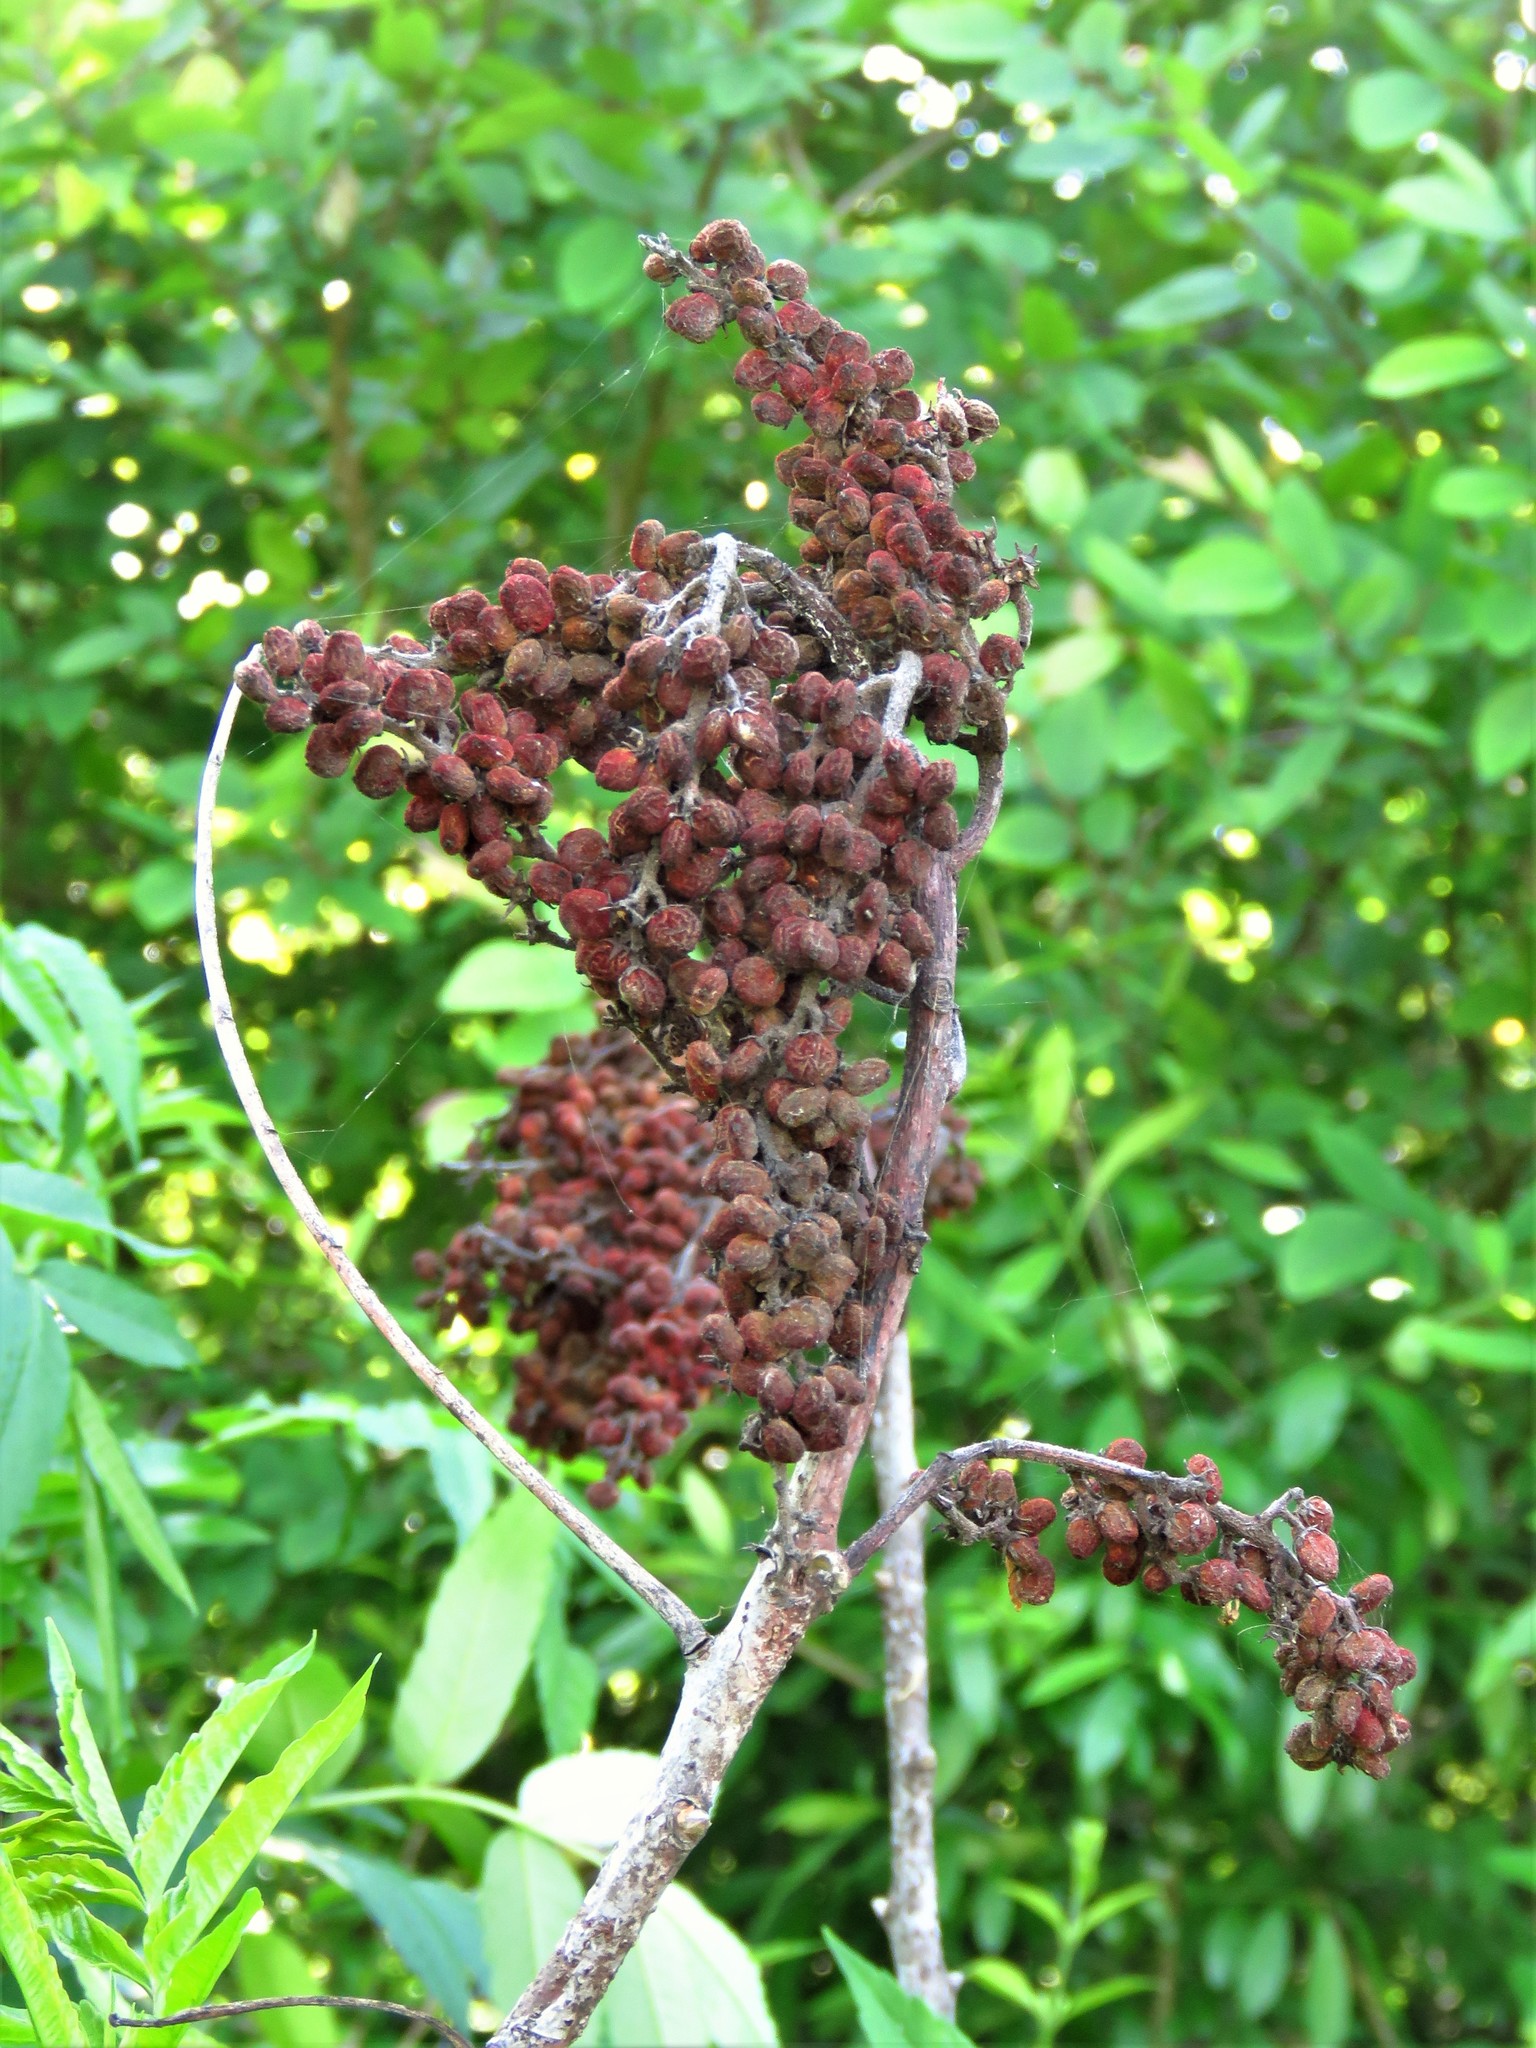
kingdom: Plantae
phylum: Tracheophyta
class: Magnoliopsida
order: Sapindales
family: Anacardiaceae
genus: Rhus
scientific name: Rhus glabra
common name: Scarlet sumac
